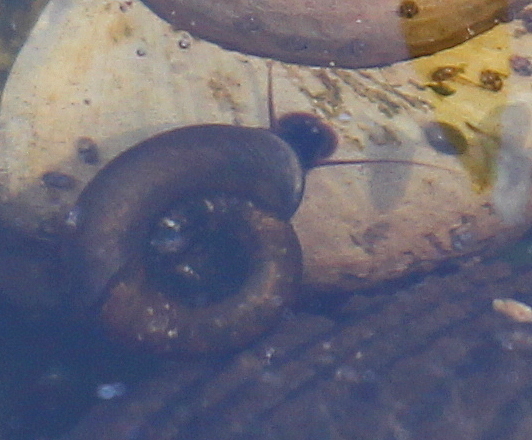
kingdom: Animalia
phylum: Mollusca
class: Gastropoda
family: Planorbidae
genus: Planorbarius
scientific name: Planorbarius corneus
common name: Great ramshorn
